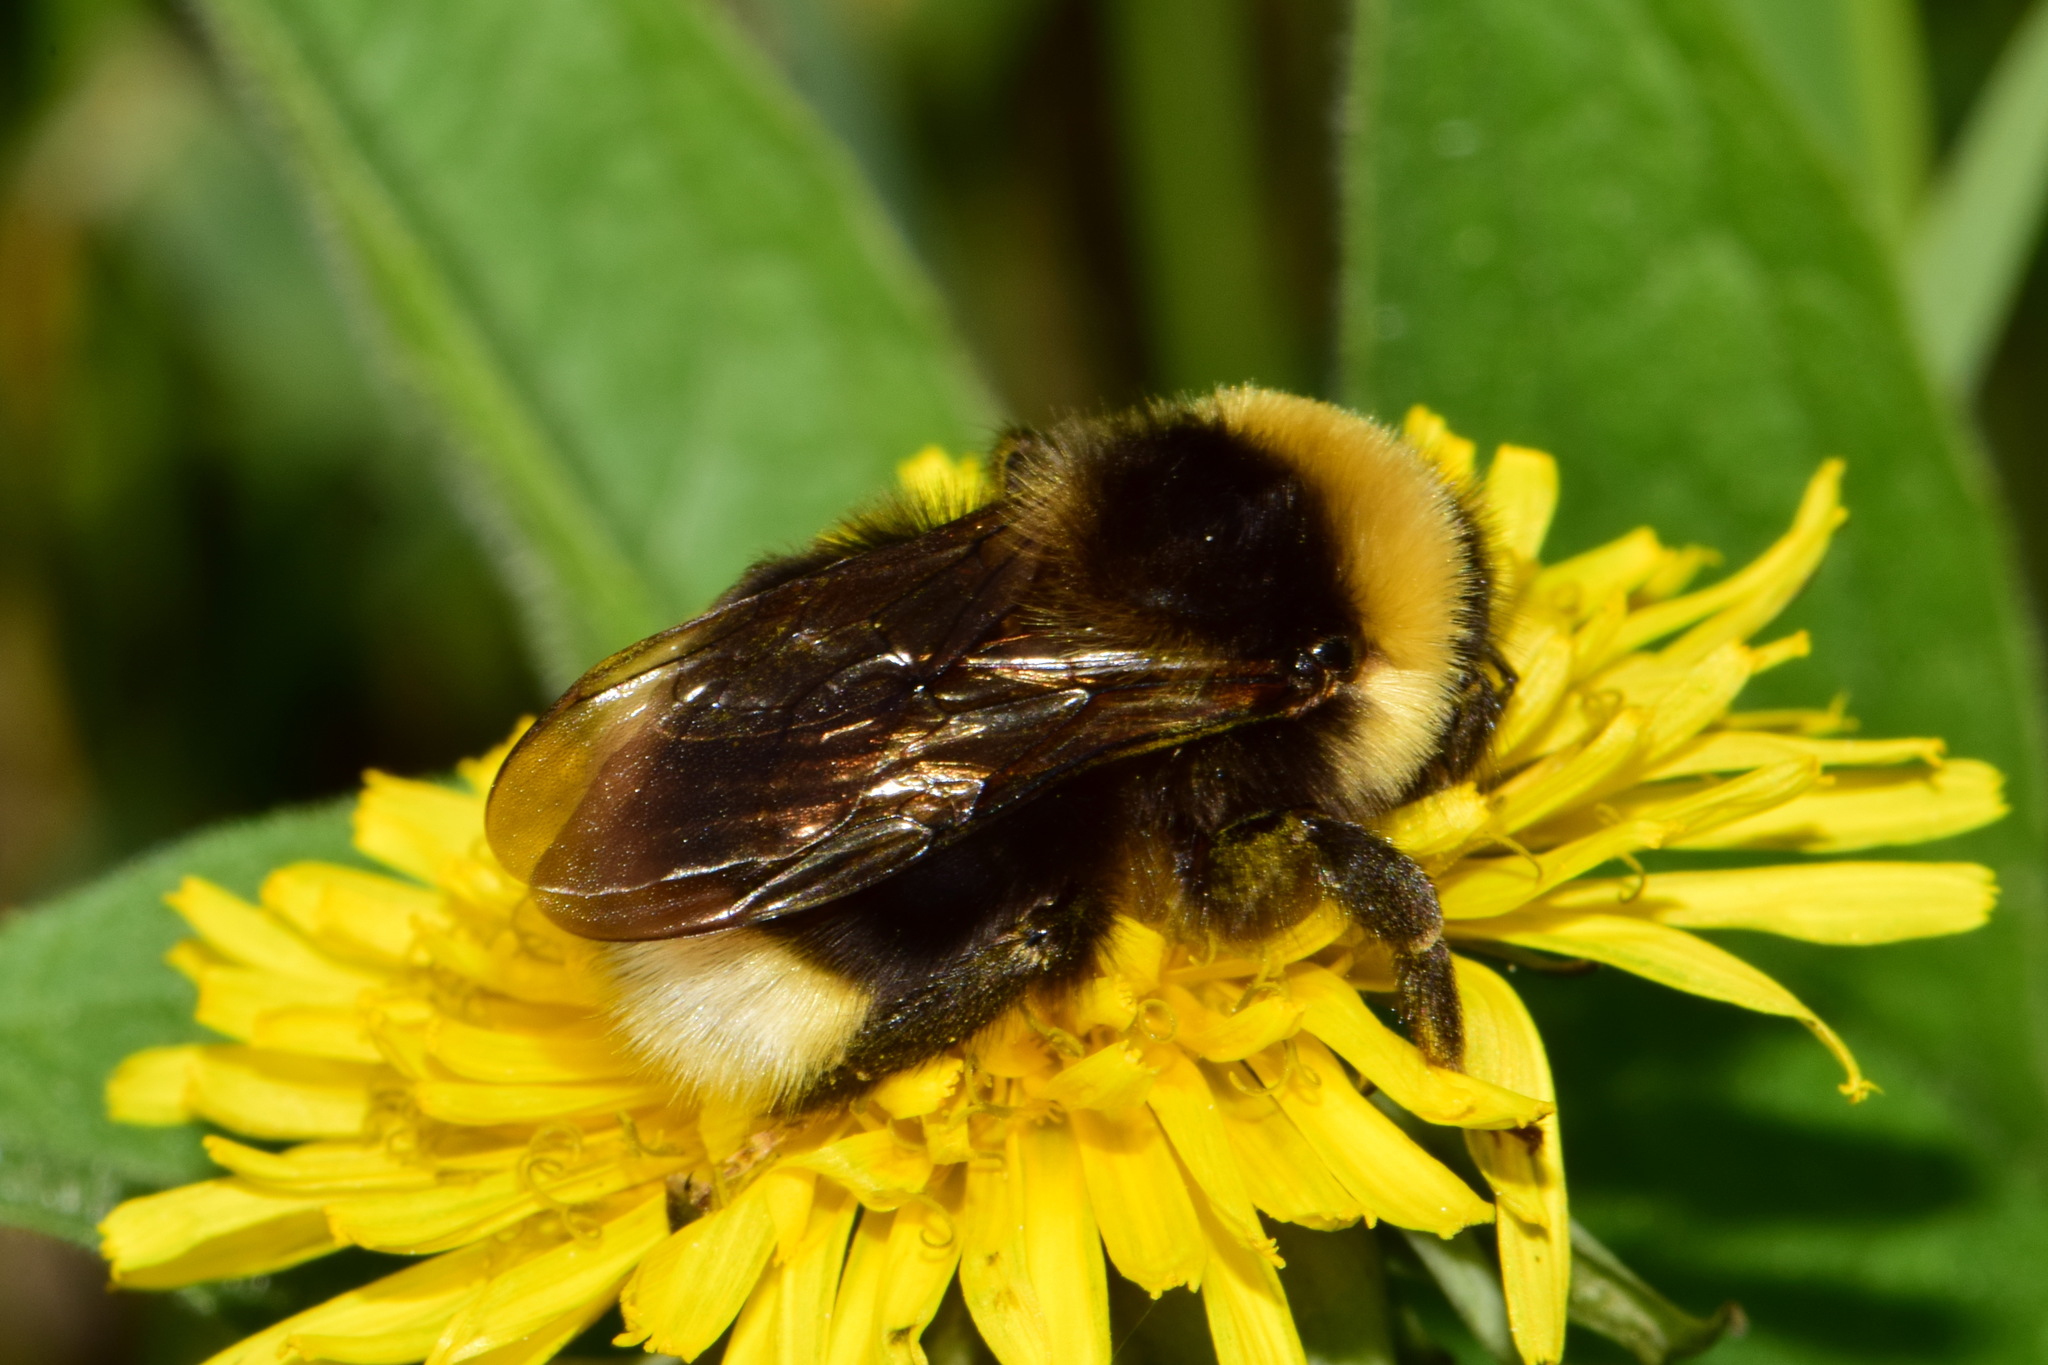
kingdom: Animalia
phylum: Arthropoda
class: Insecta
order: Hymenoptera
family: Apidae
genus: Bombus
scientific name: Bombus bohemicus
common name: Gypsy cuckoo bee
